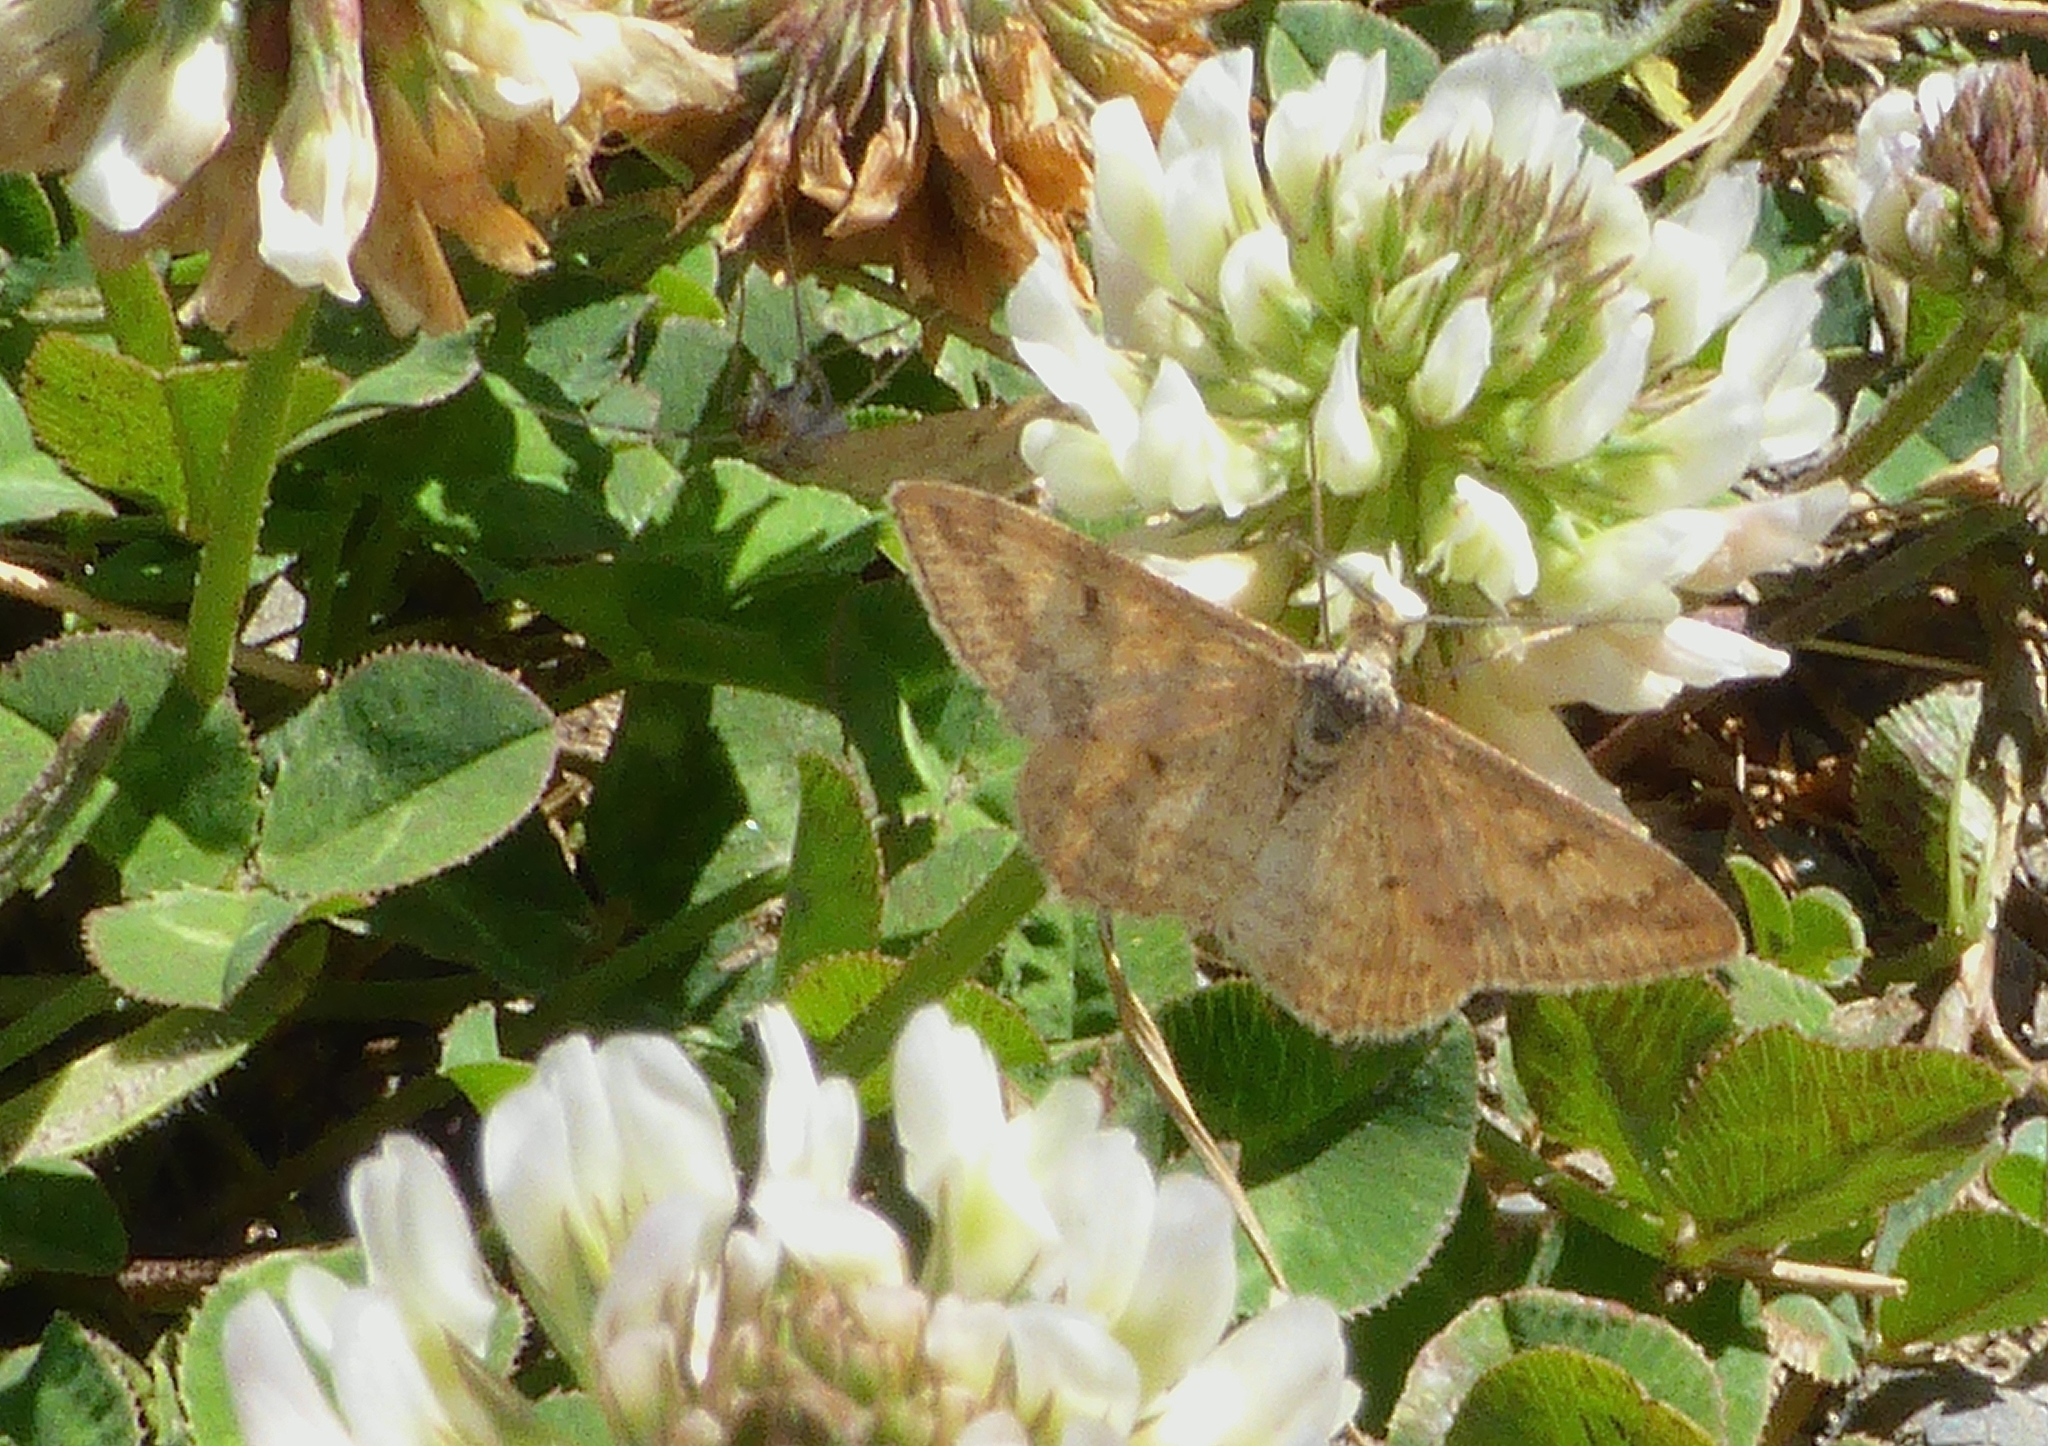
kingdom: Animalia
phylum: Arthropoda
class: Insecta
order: Lepidoptera
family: Geometridae
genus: Scopula
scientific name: Scopula rubraria
